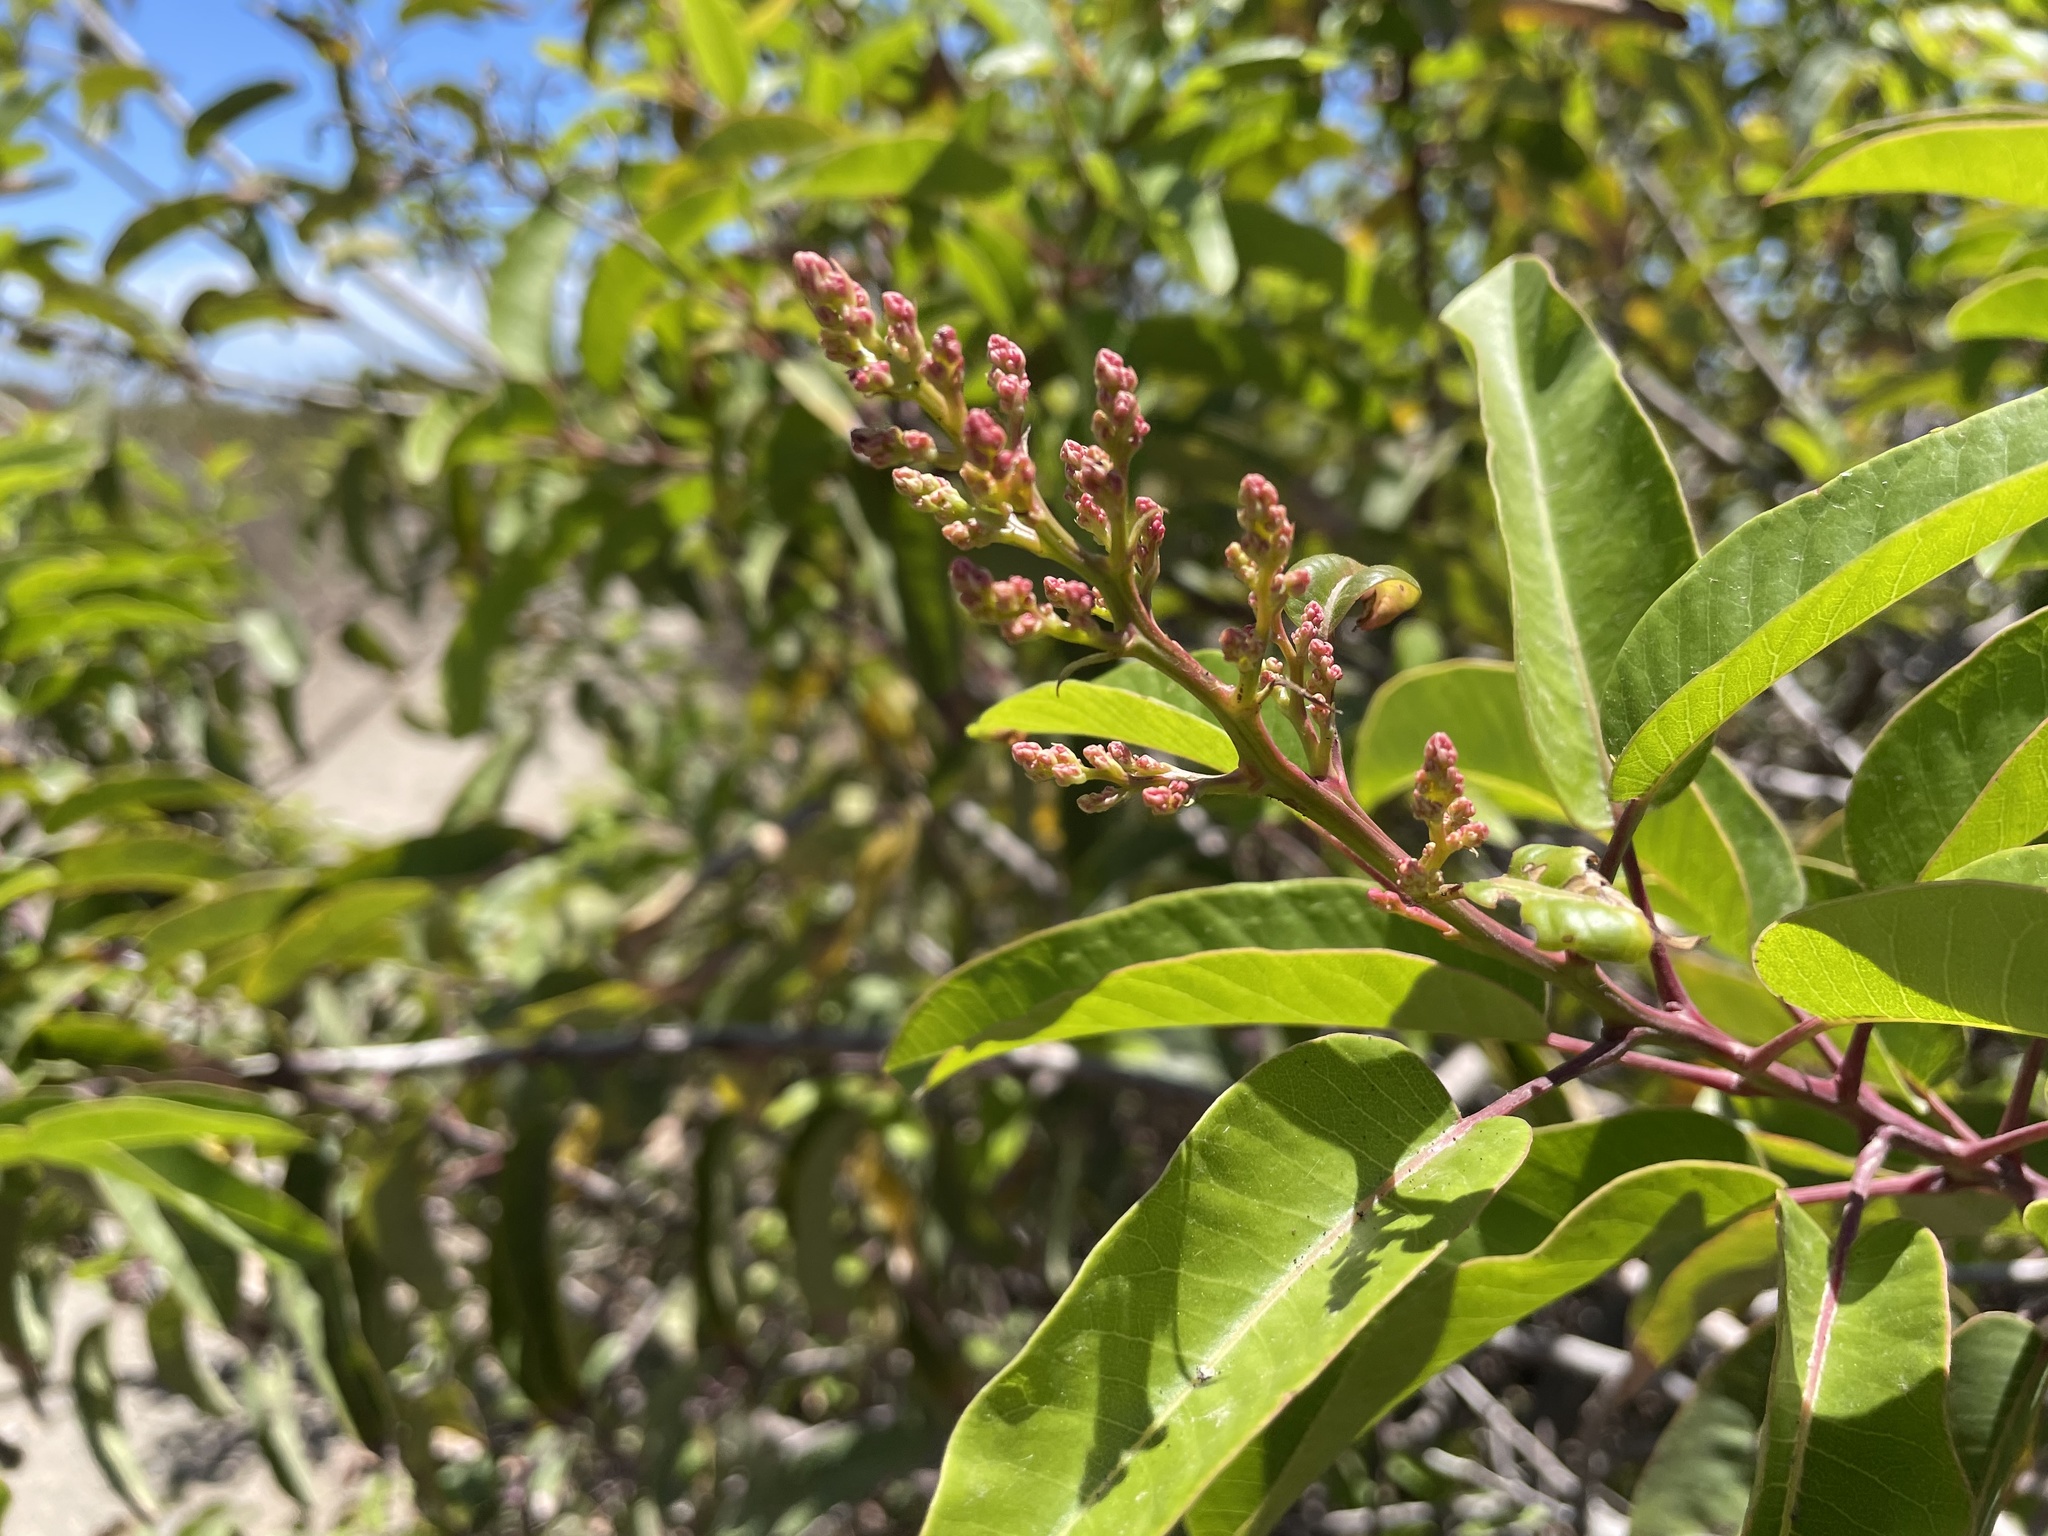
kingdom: Plantae
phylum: Tracheophyta
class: Magnoliopsida
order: Sapindales
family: Anacardiaceae
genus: Malosma
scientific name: Malosma laurina
